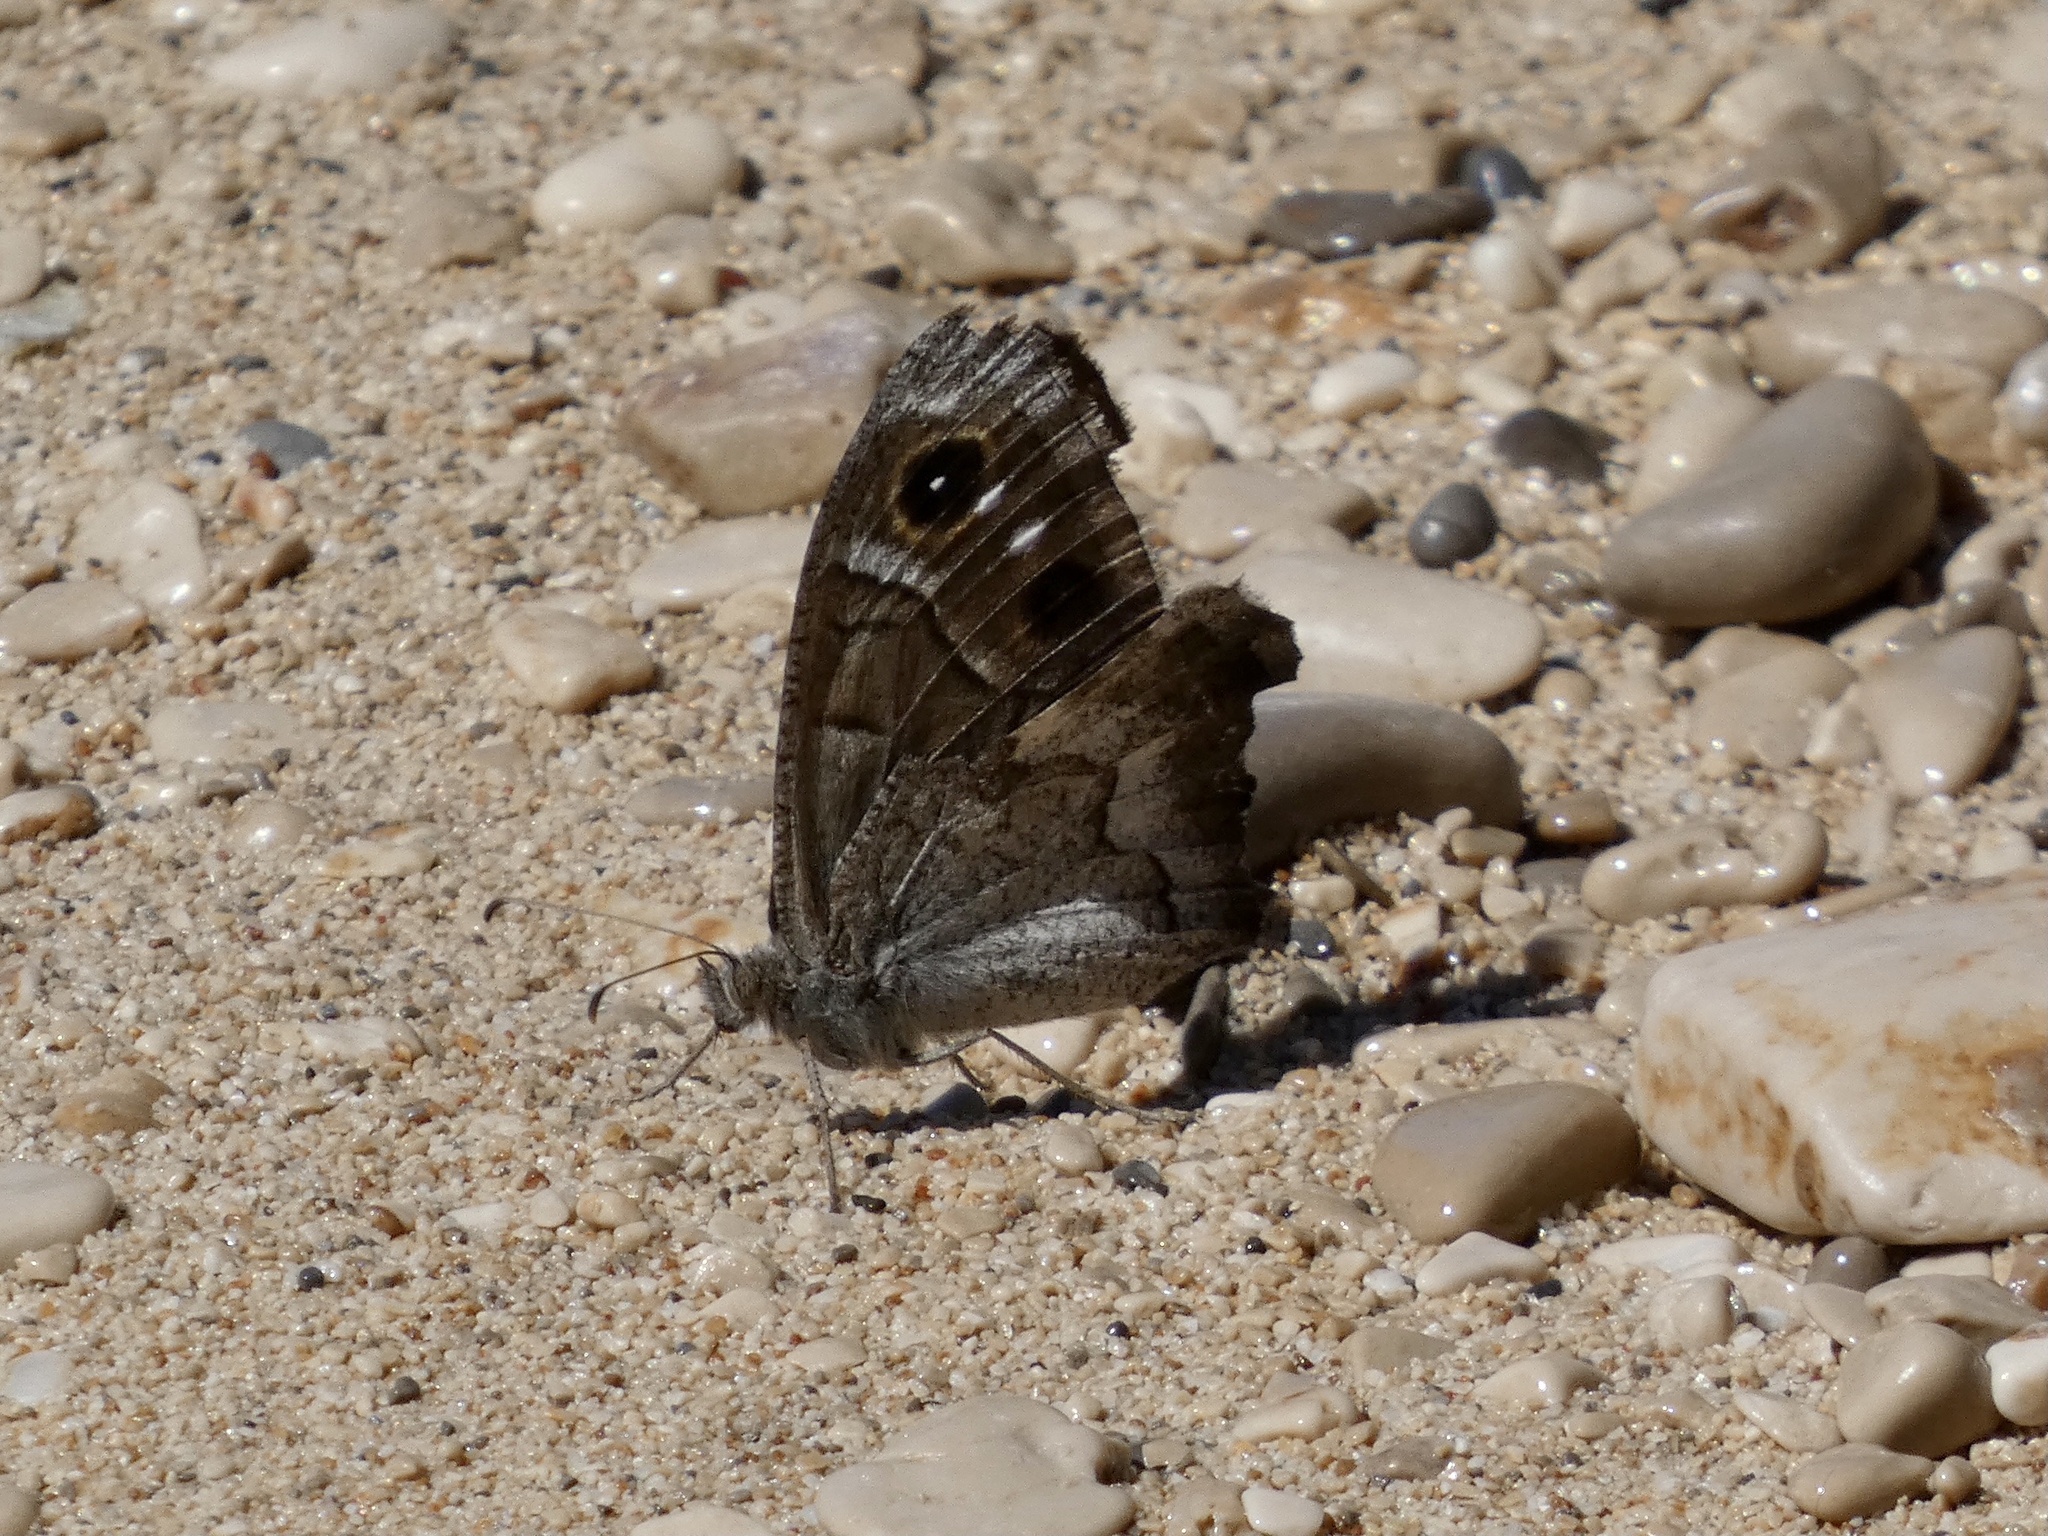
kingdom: Animalia
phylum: Arthropoda
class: Insecta
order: Lepidoptera
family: Nymphalidae
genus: Hipparchia
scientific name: Hipparchia statilinus
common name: Tree grayling
